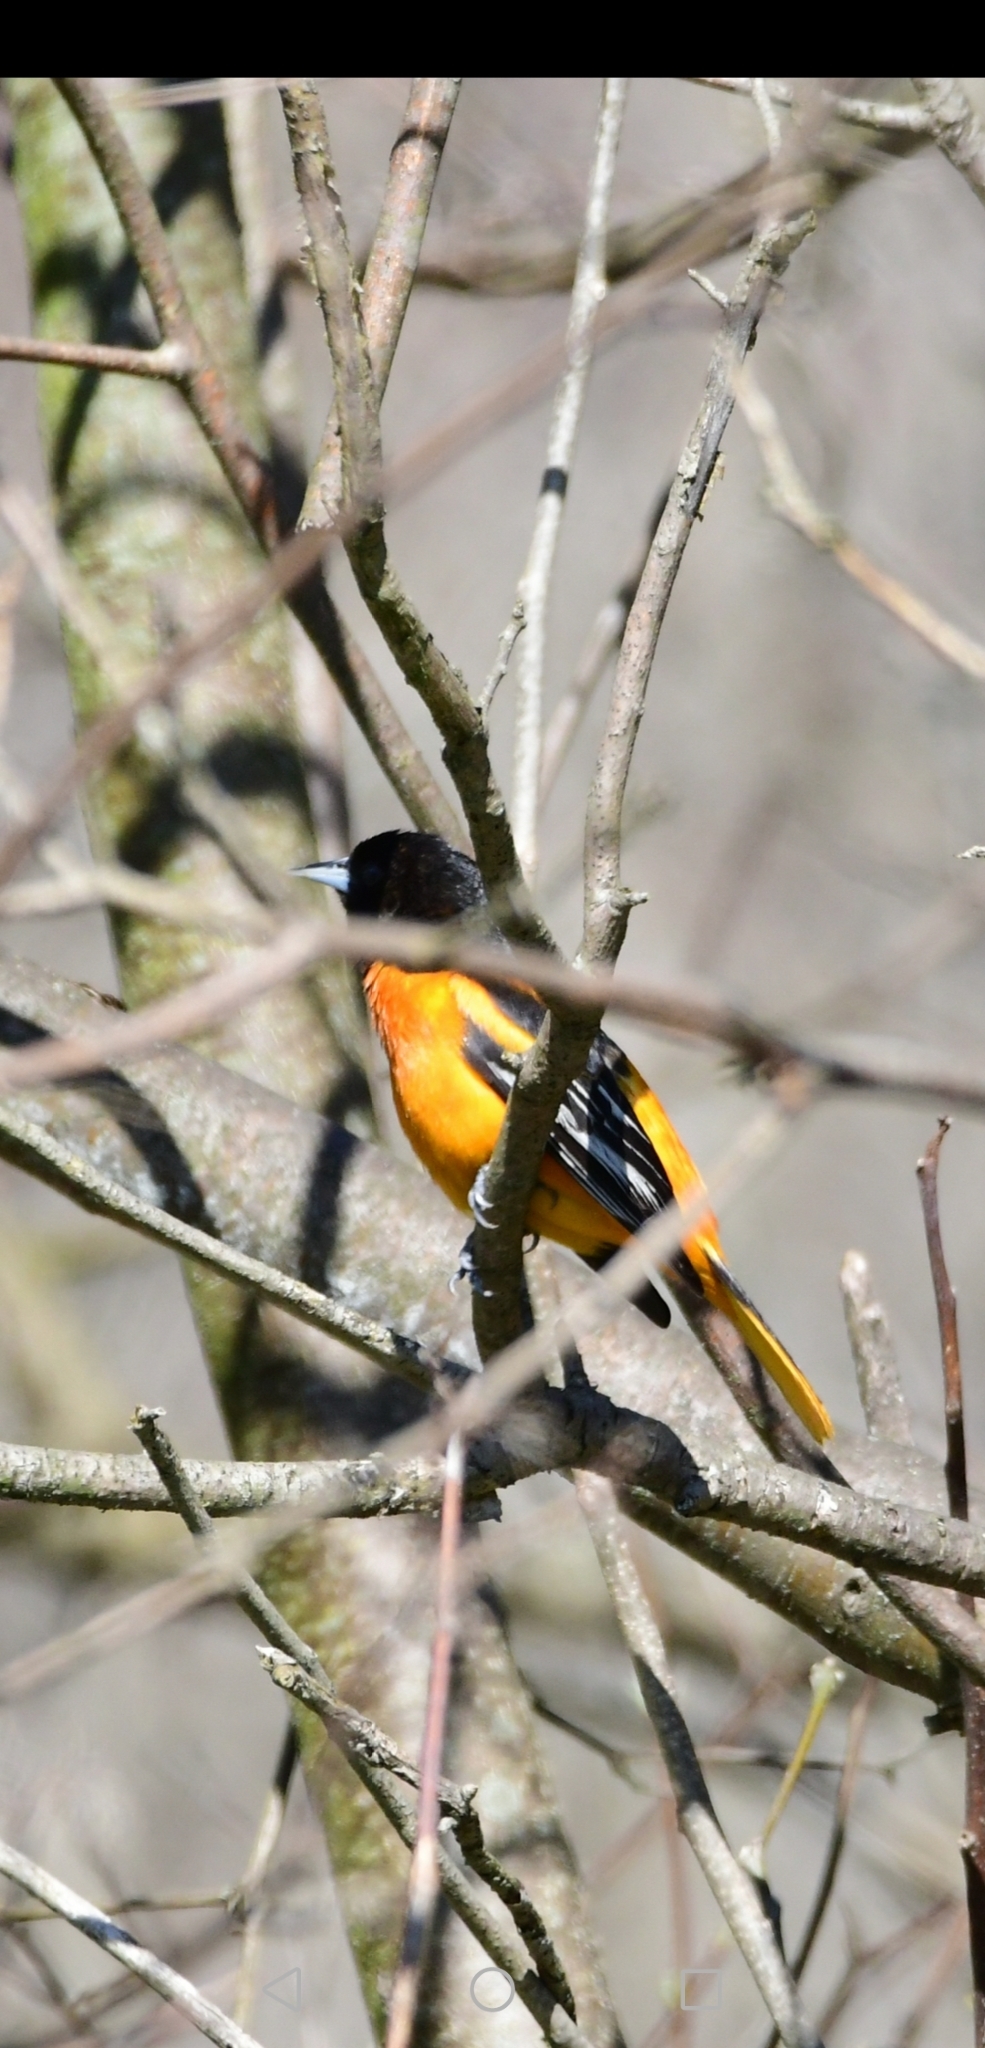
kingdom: Animalia
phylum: Chordata
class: Aves
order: Passeriformes
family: Icteridae
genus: Icterus
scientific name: Icterus galbula
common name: Baltimore oriole
